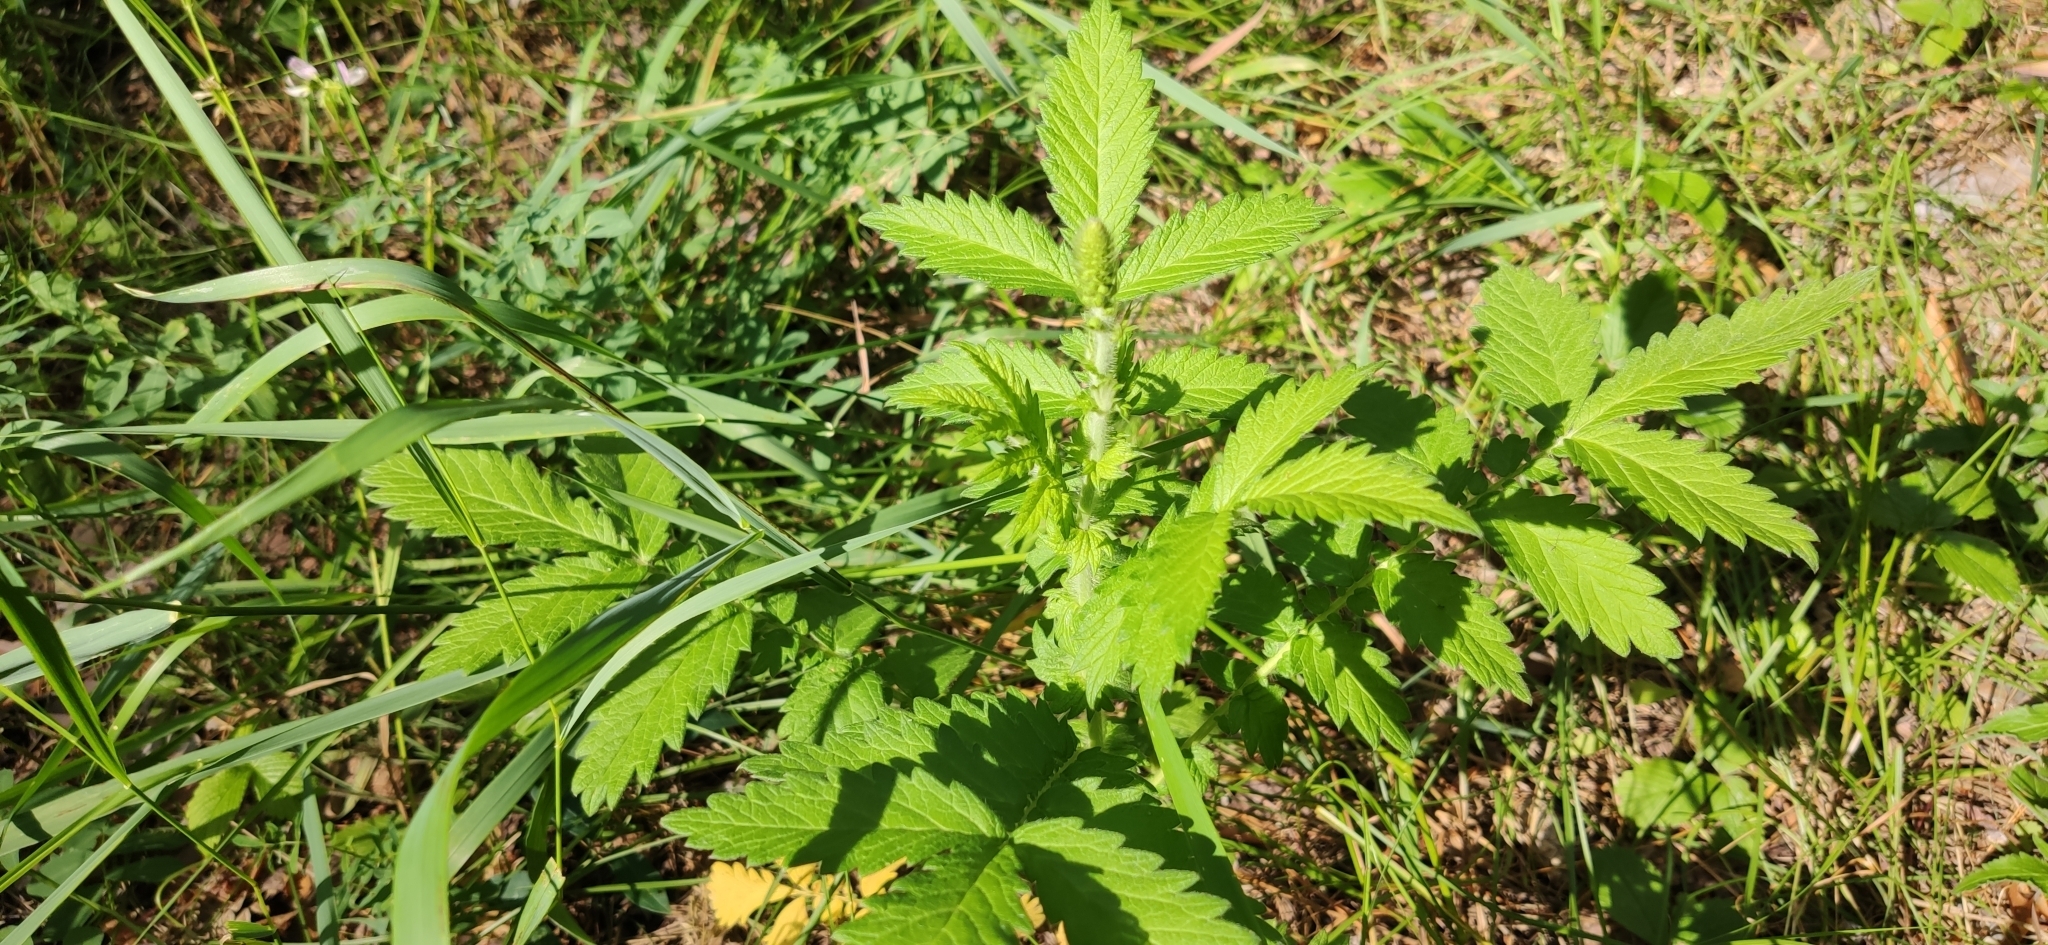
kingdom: Plantae
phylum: Tracheophyta
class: Magnoliopsida
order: Rosales
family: Rosaceae
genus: Agrimonia
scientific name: Agrimonia eupatoria
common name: Agrimony
